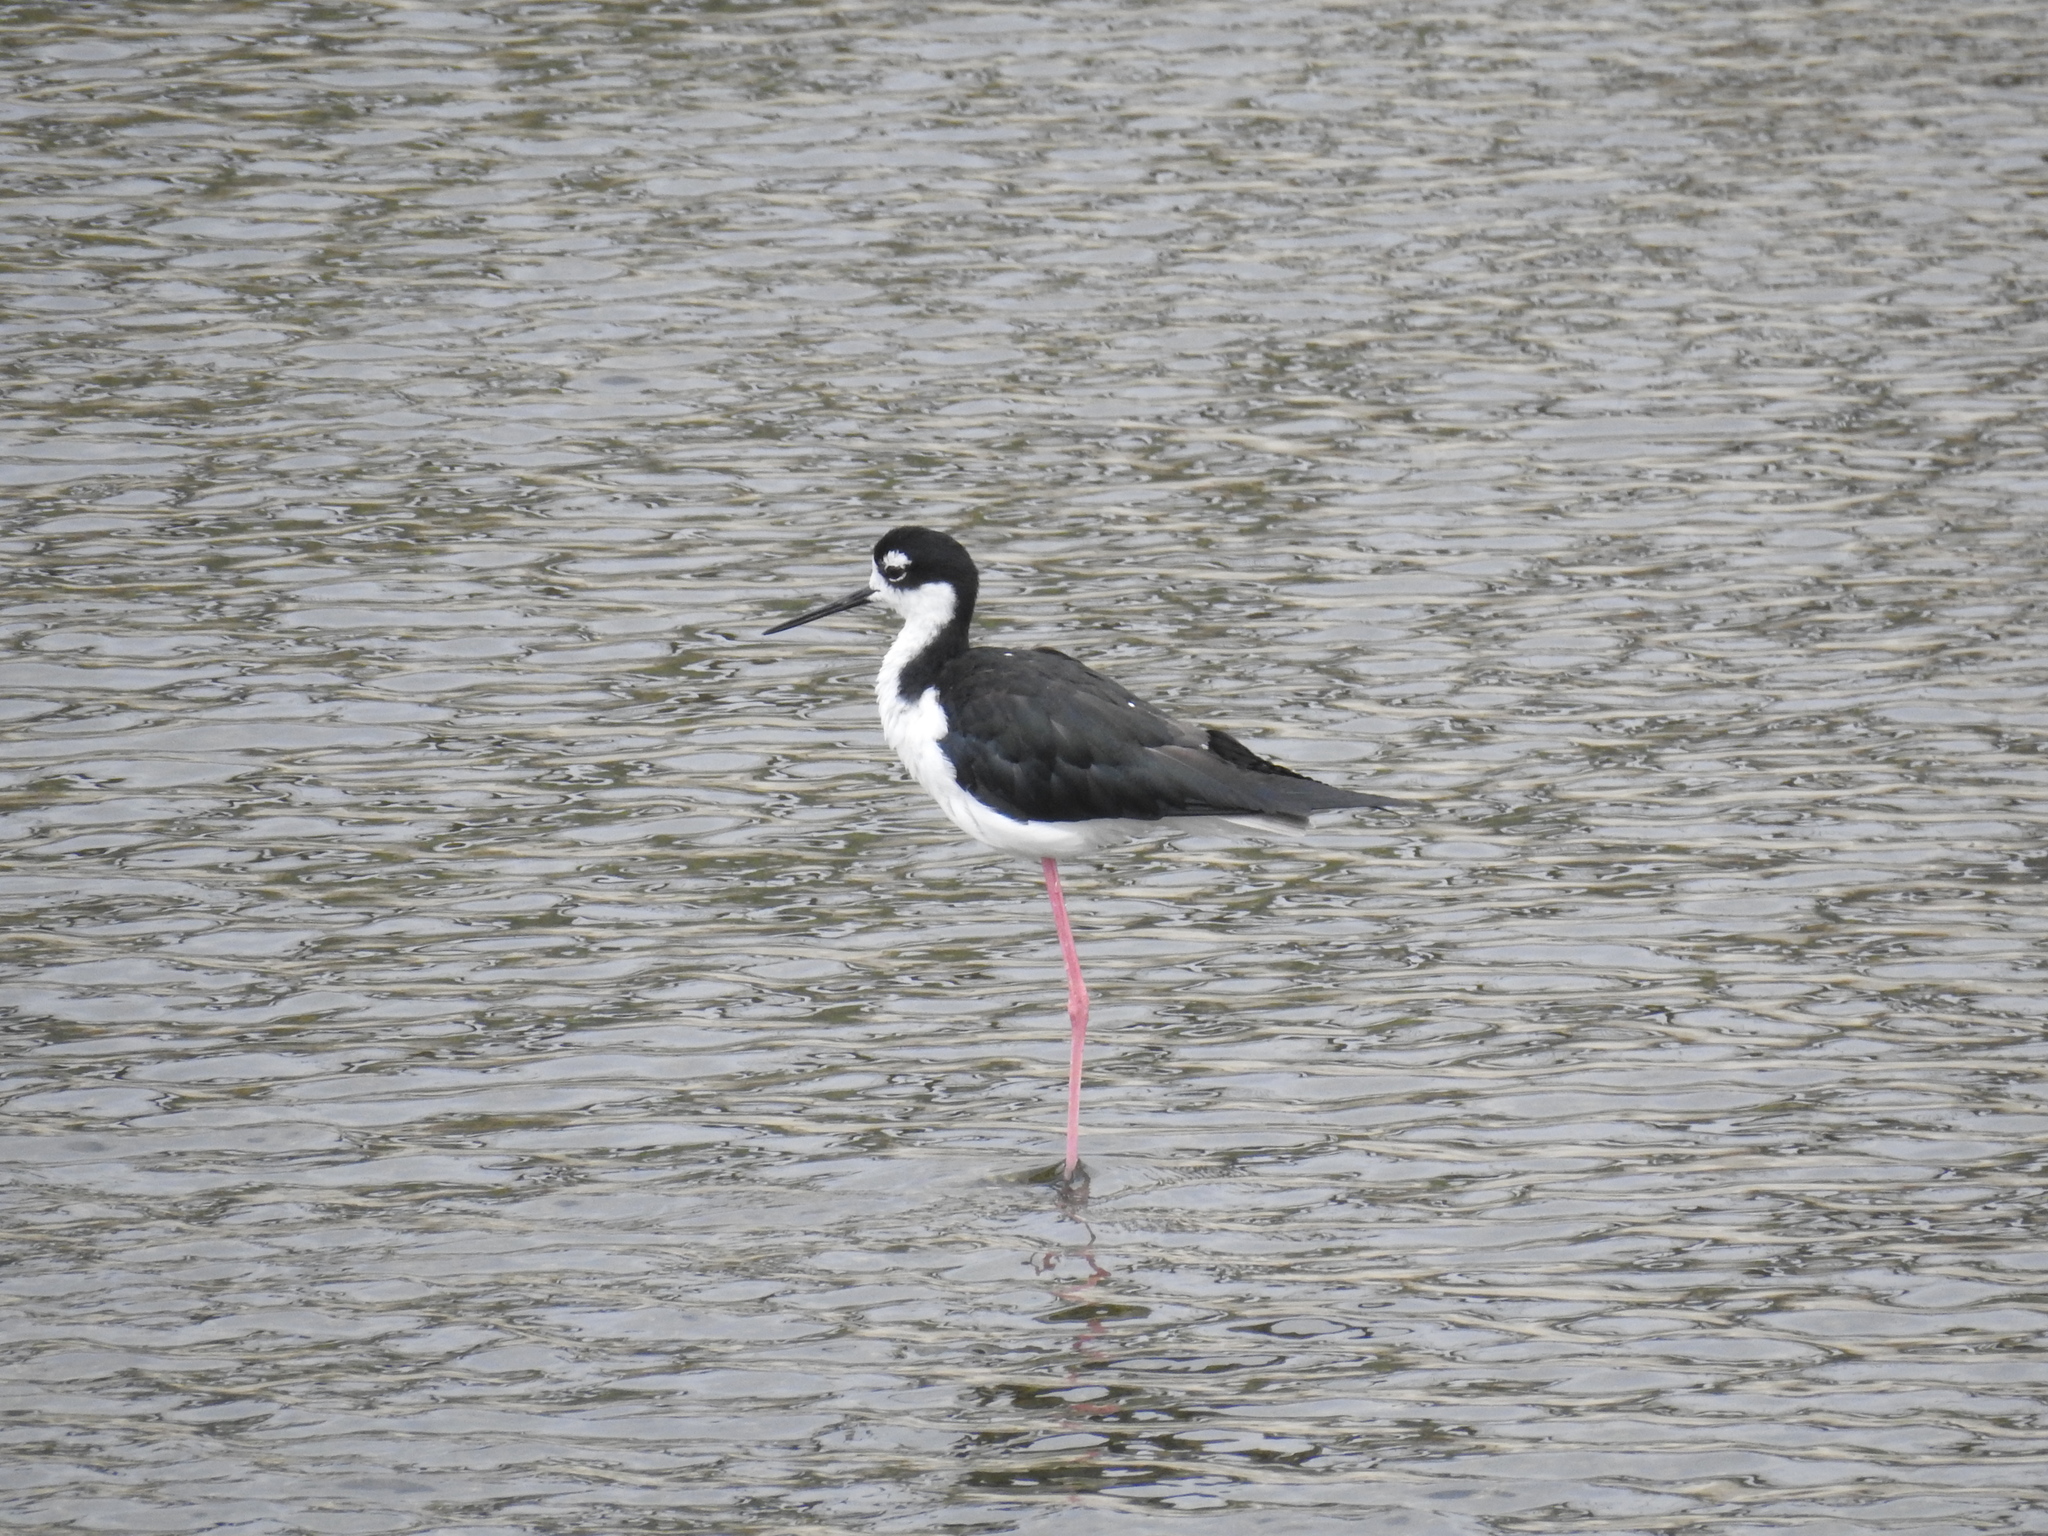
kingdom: Animalia
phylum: Chordata
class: Aves
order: Charadriiformes
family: Recurvirostridae
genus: Himantopus
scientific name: Himantopus mexicanus
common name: Black-necked stilt
